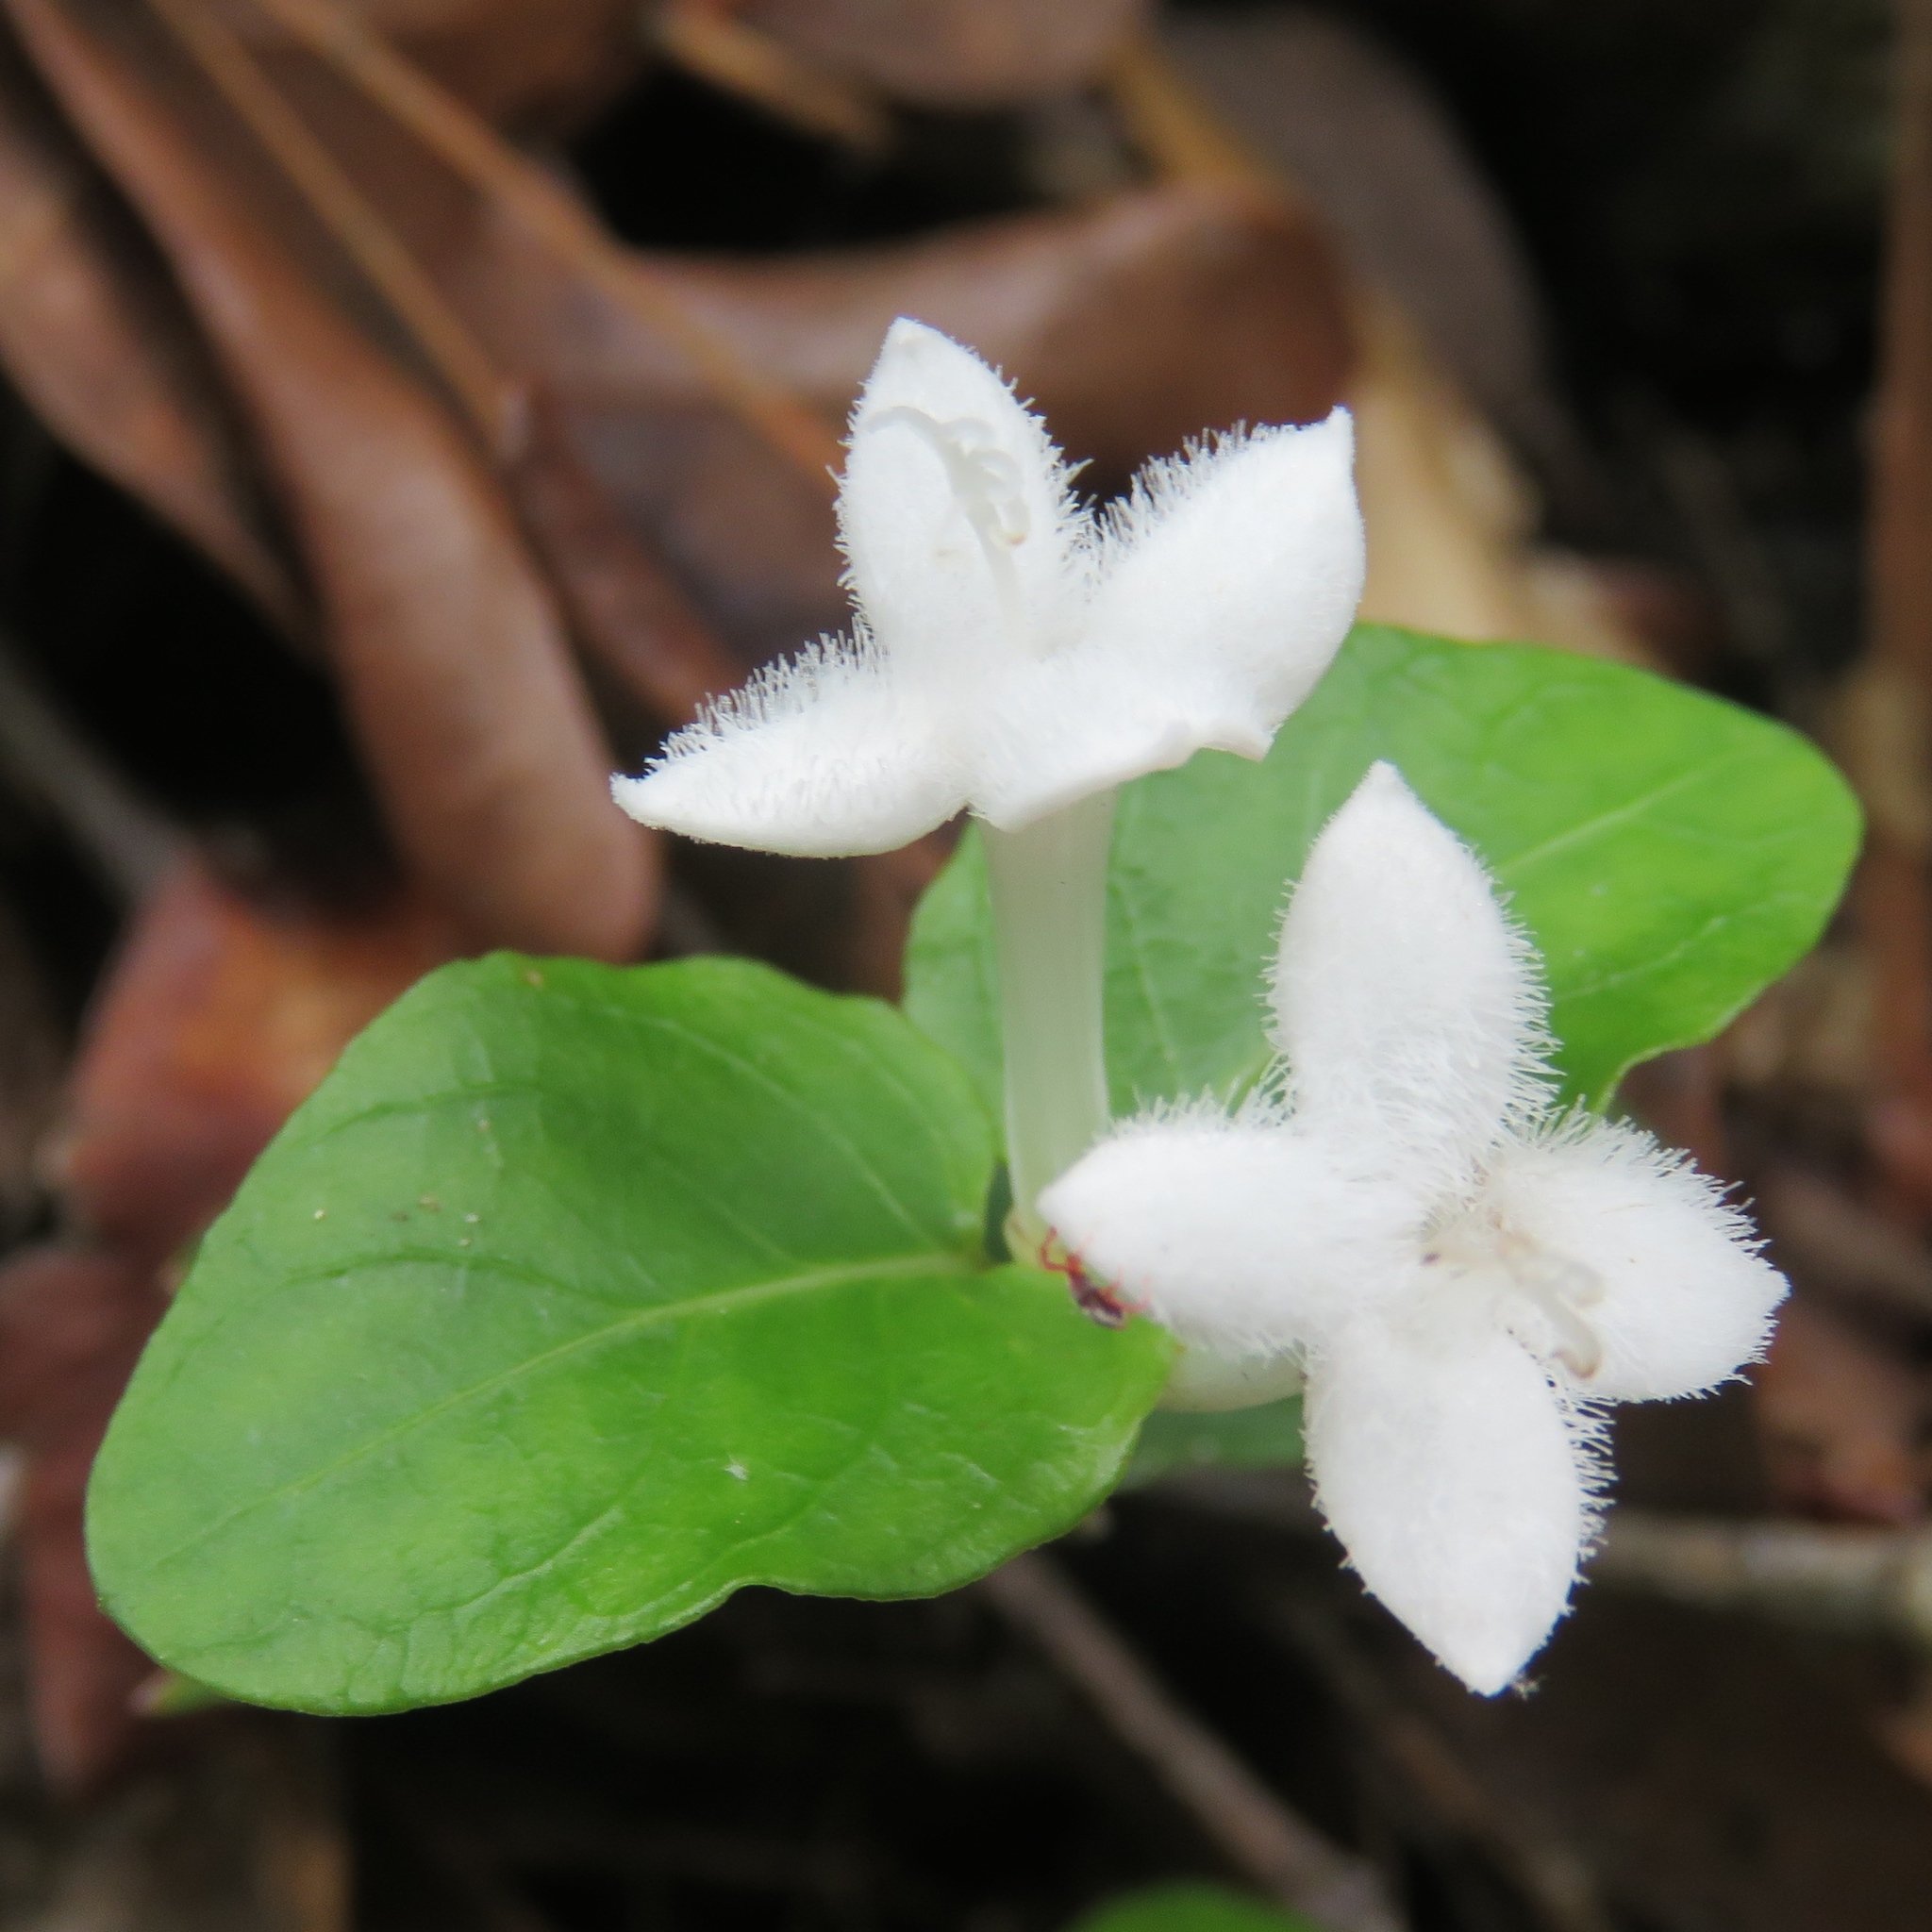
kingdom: Plantae
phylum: Tracheophyta
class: Magnoliopsida
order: Gentianales
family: Rubiaceae
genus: Mitchella
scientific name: Mitchella repens
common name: Partridge-berry
